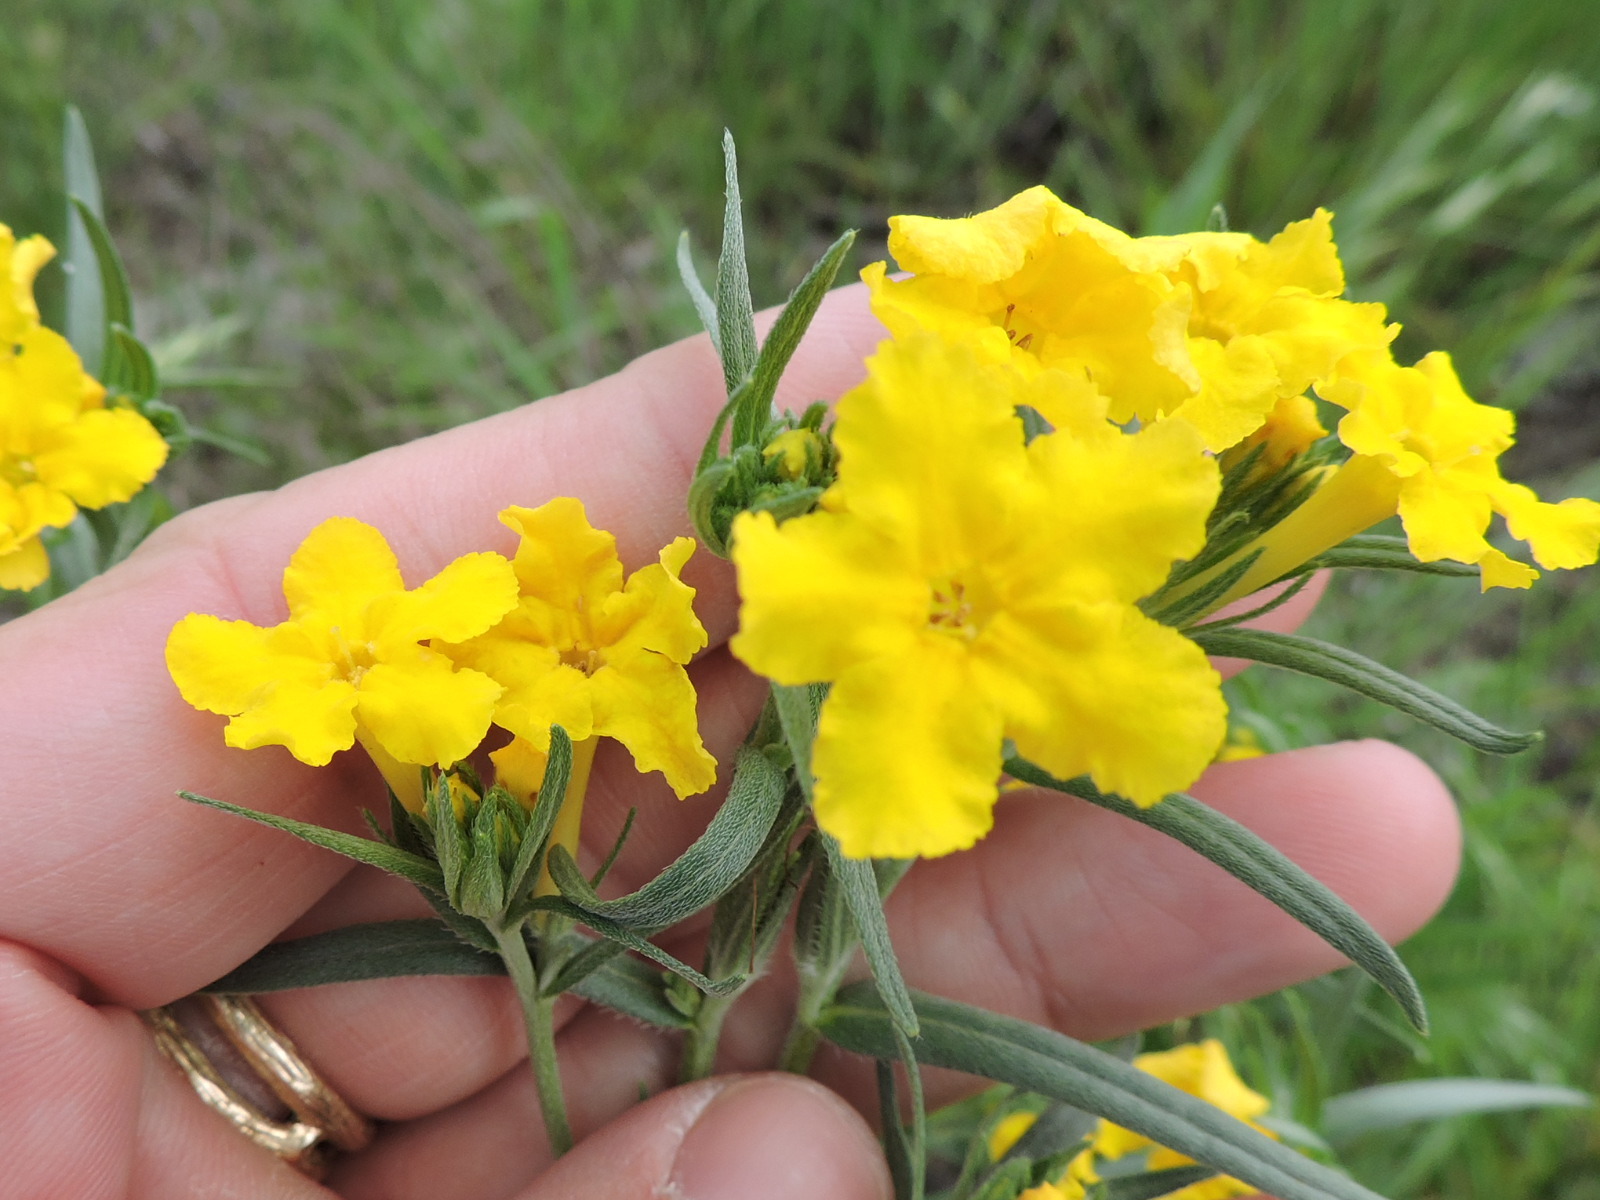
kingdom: Plantae
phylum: Tracheophyta
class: Magnoliopsida
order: Boraginales
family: Boraginaceae
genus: Lithospermum
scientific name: Lithospermum incisum
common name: Fringed gromwell
